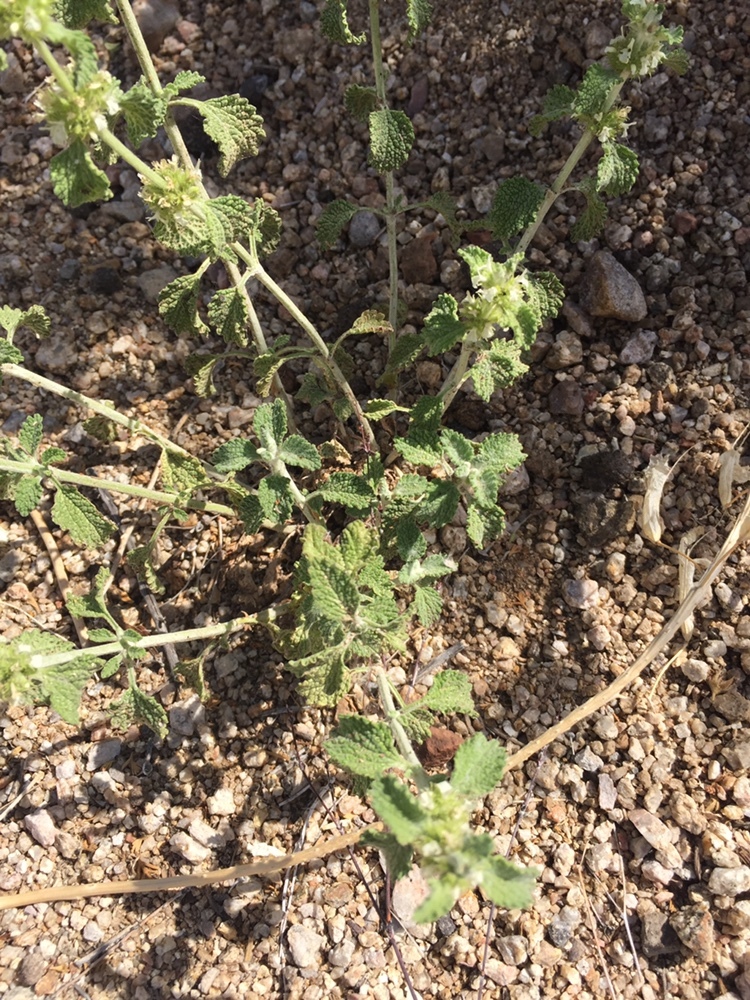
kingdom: Plantae
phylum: Tracheophyta
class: Magnoliopsida
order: Lamiales
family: Lamiaceae
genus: Marrubium
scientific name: Marrubium vulgare
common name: Horehound
